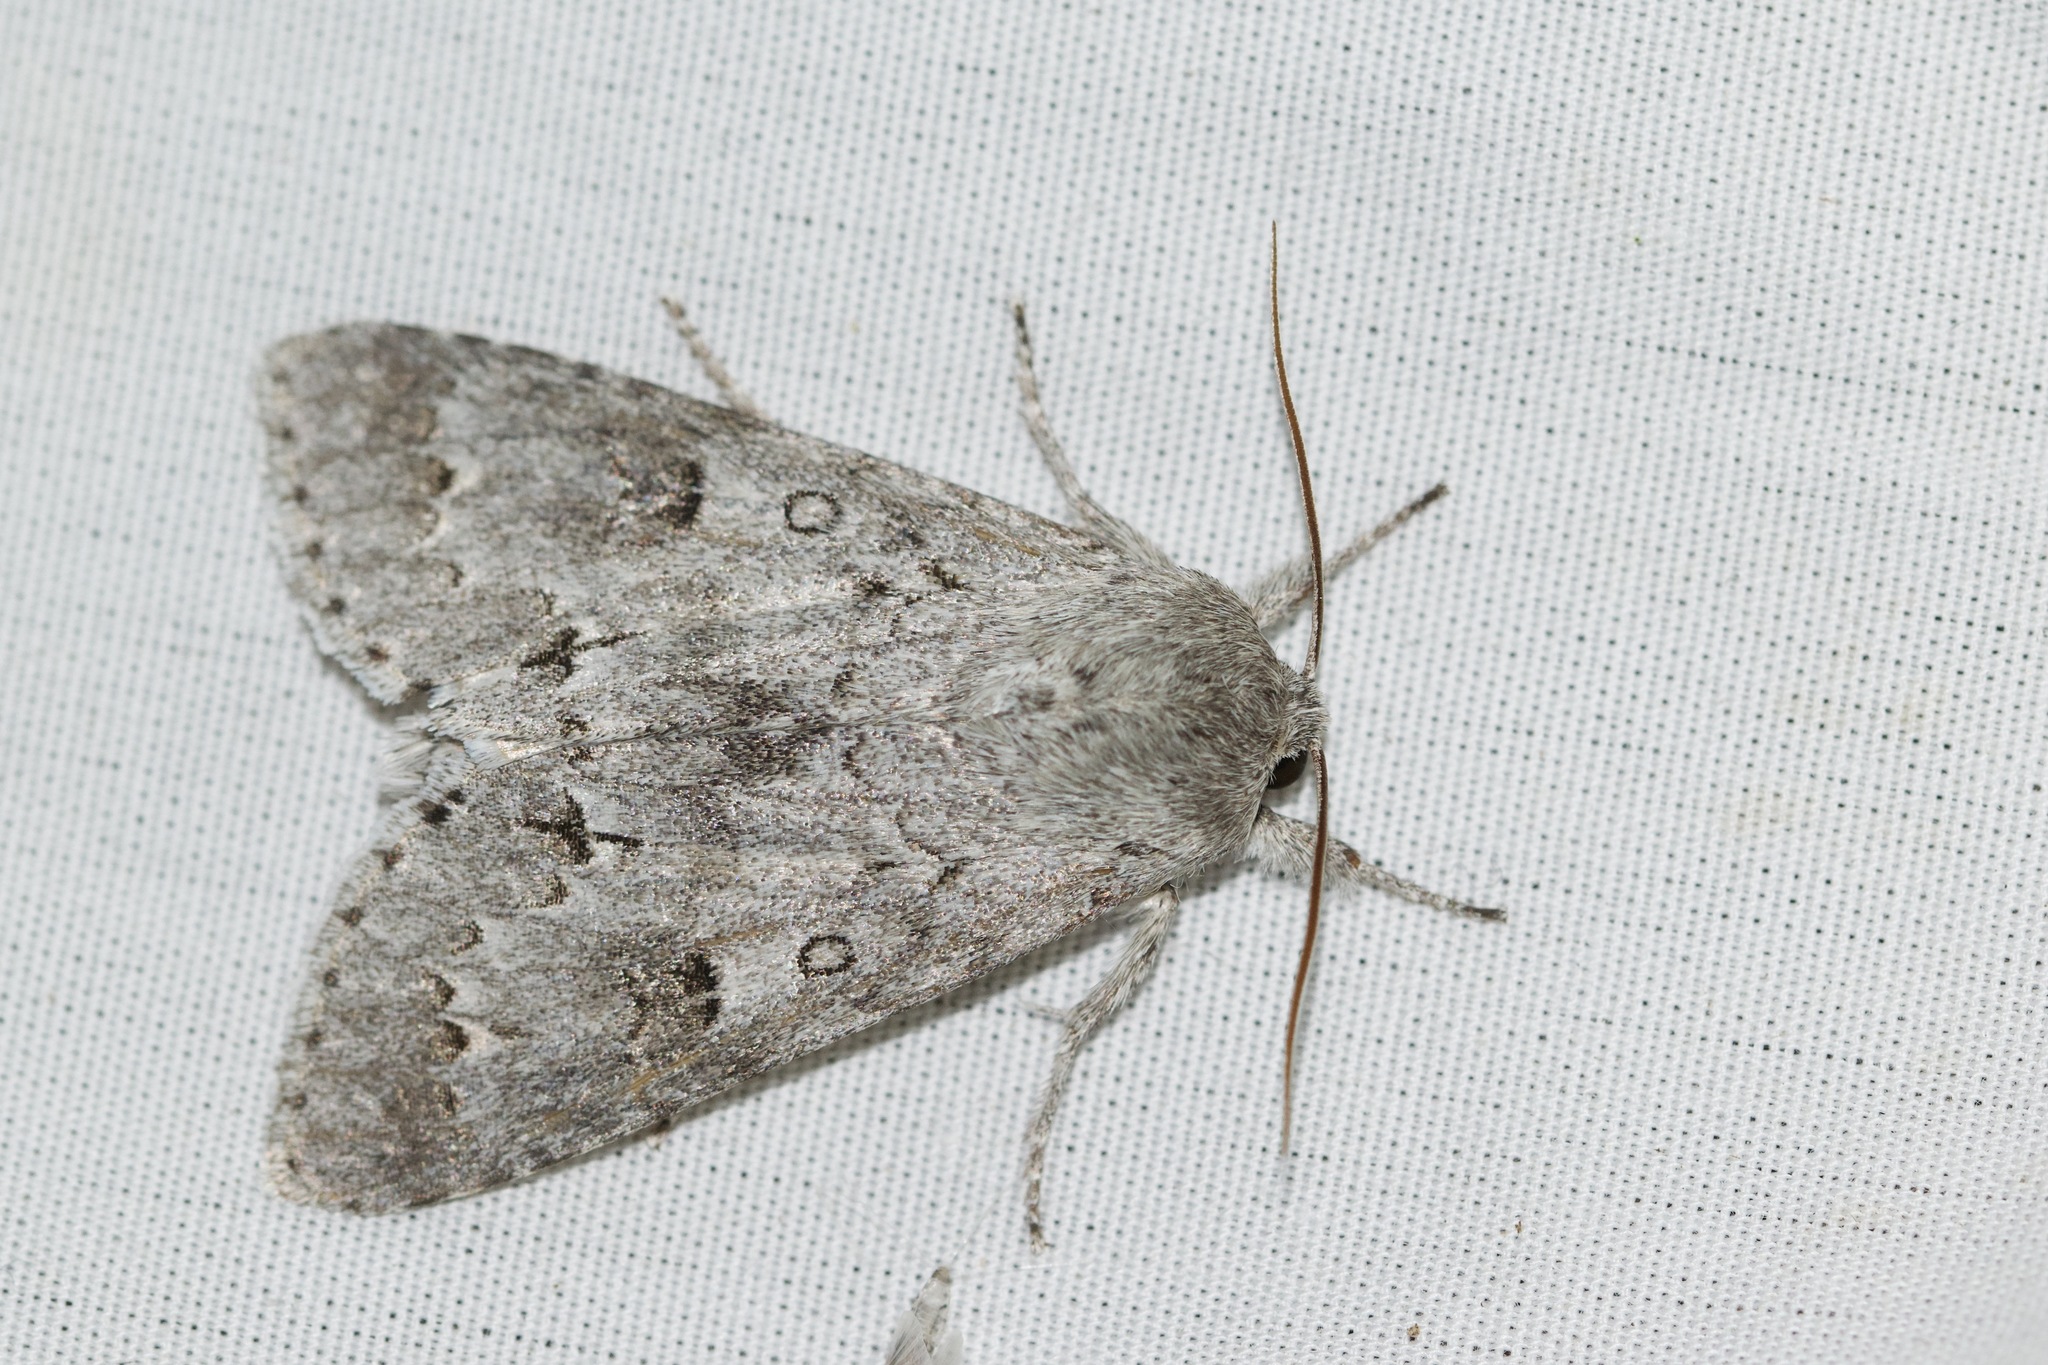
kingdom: Animalia
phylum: Arthropoda
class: Insecta
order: Lepidoptera
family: Noctuidae
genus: Acronicta
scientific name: Acronicta insita
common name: Large gray dagger
